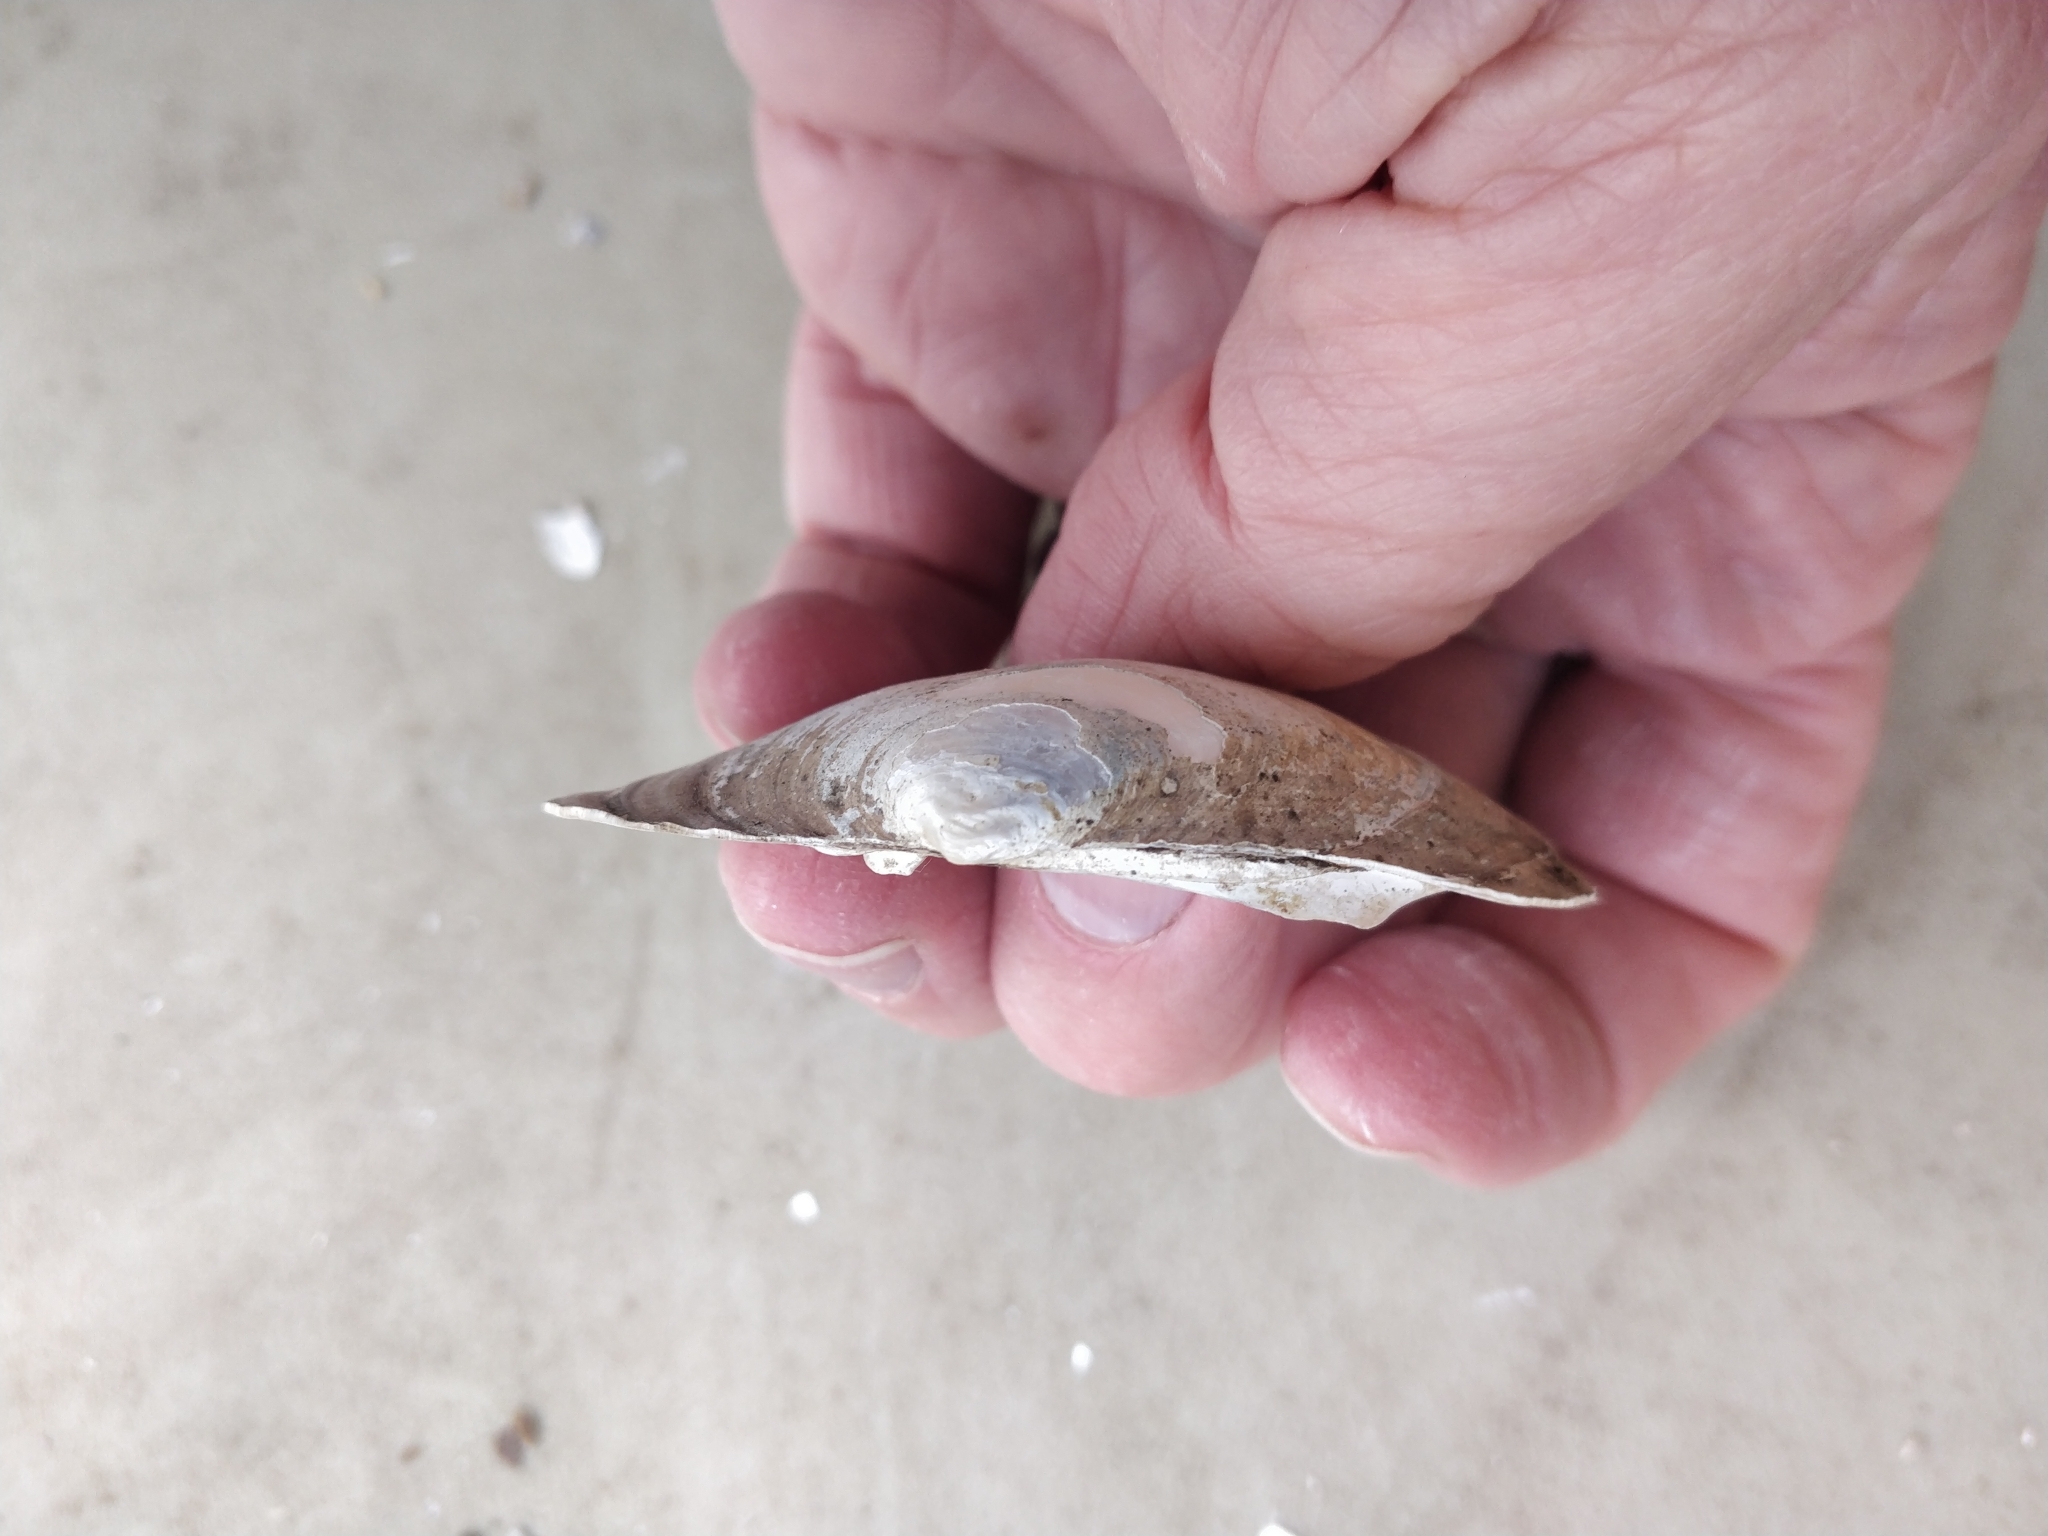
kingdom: Animalia
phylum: Mollusca
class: Bivalvia
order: Unionida
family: Unionidae
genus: Lampsilis
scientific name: Lampsilis cardium
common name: Plain pocketbook
